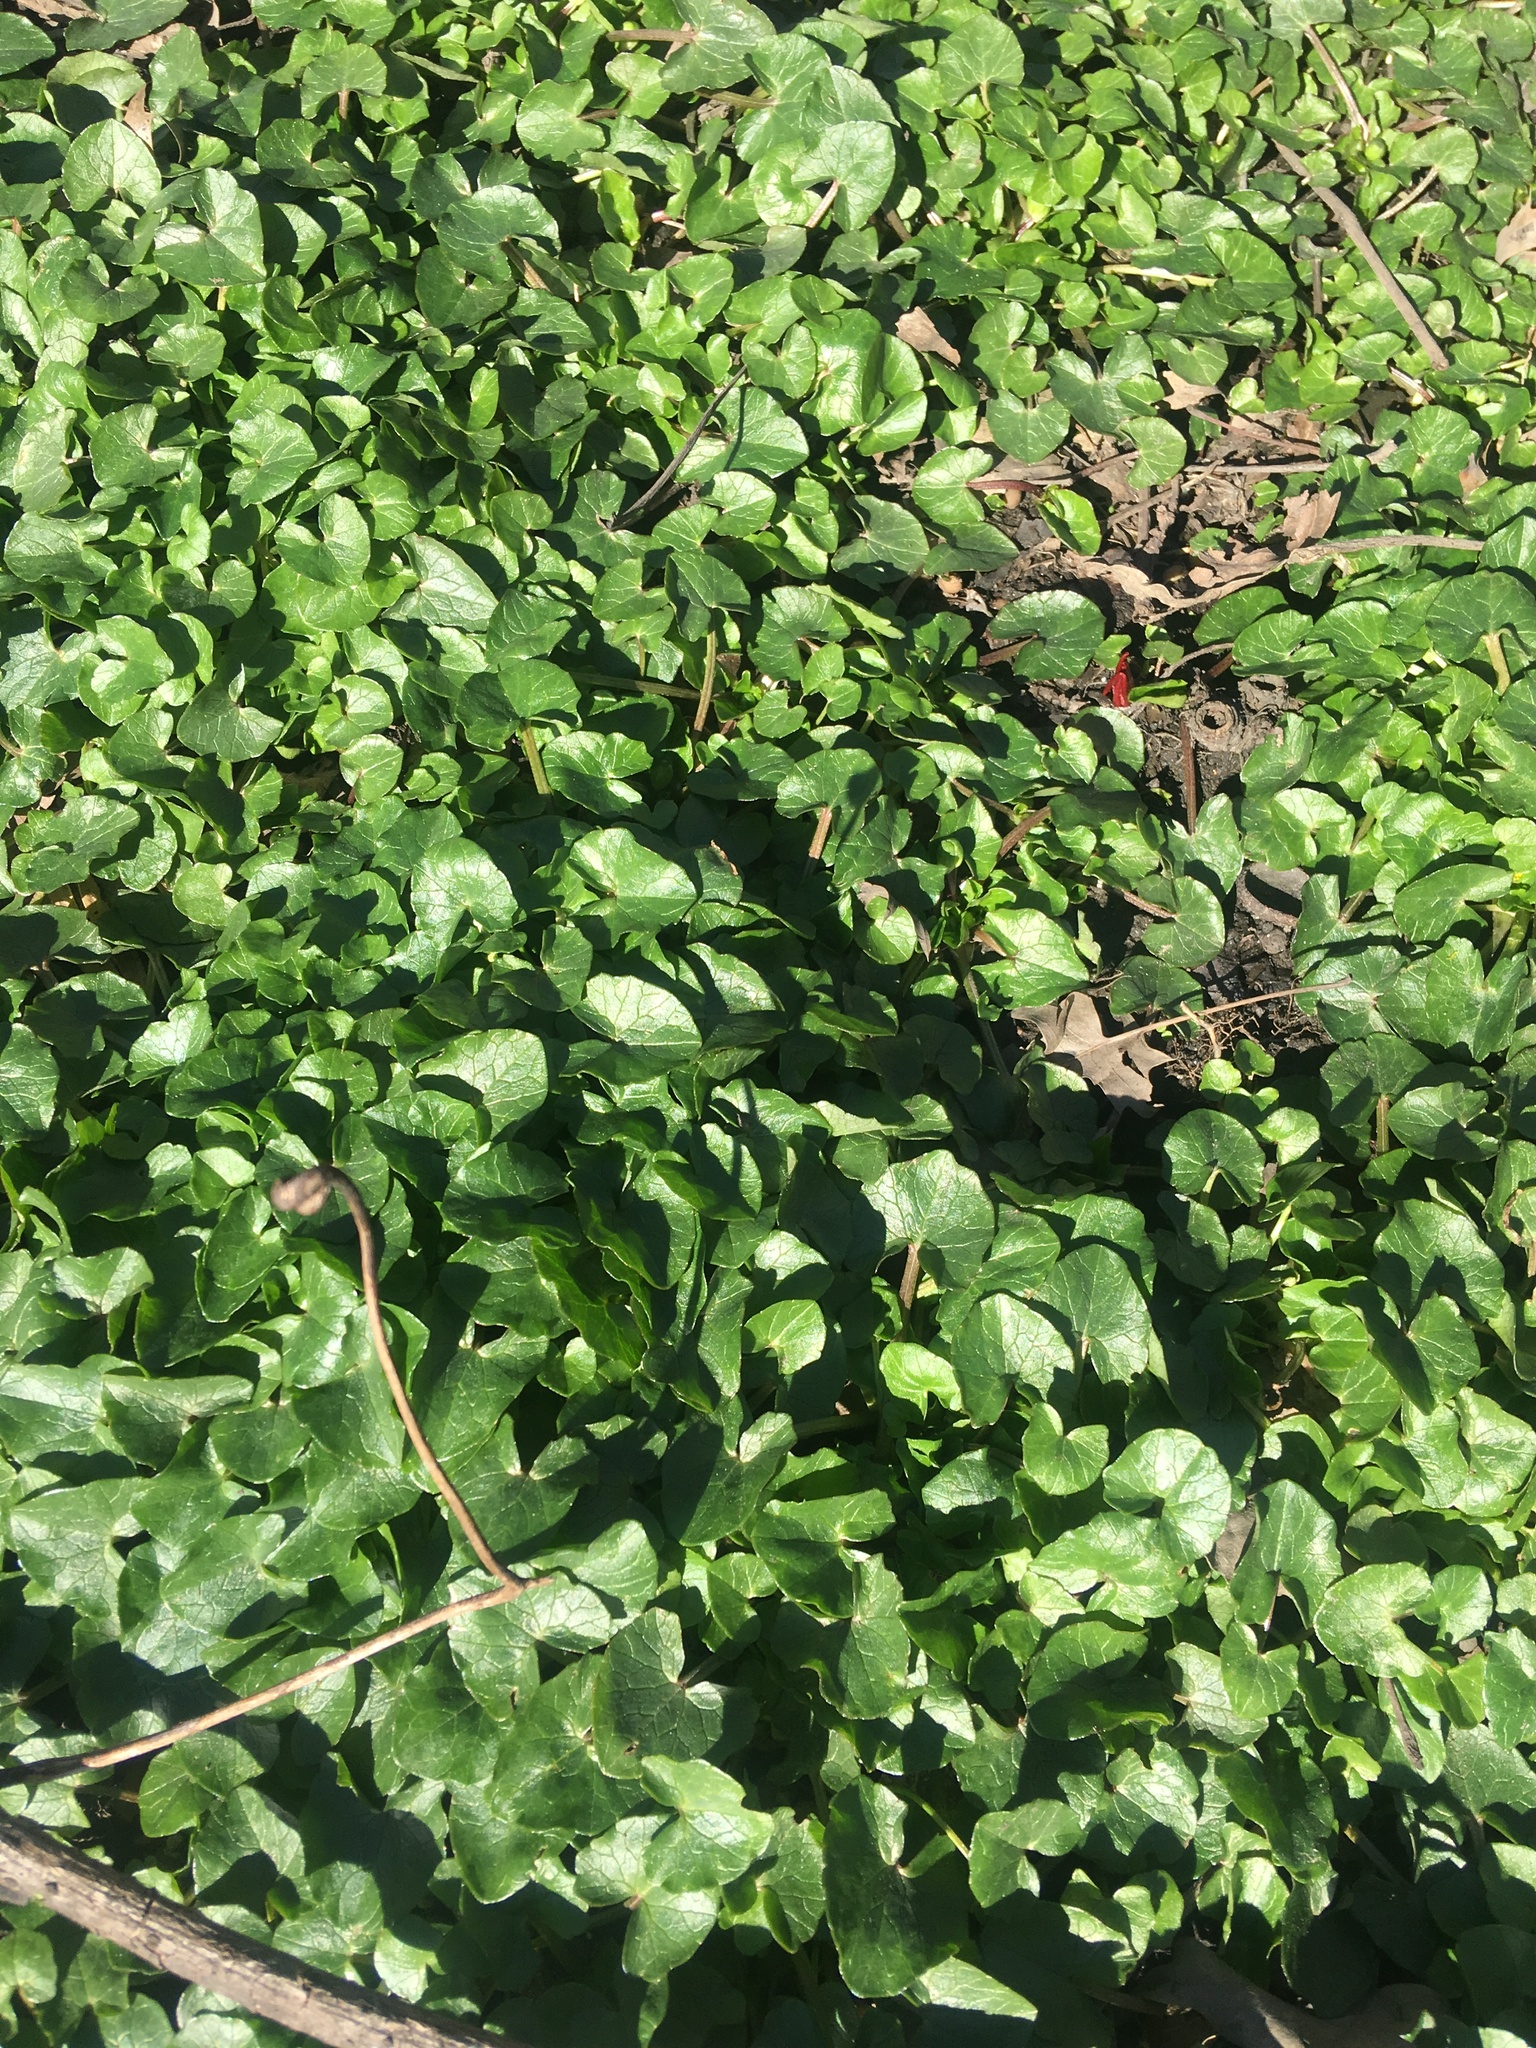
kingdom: Plantae
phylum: Tracheophyta
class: Magnoliopsida
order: Ranunculales
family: Ranunculaceae
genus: Ficaria
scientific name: Ficaria verna
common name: Lesser celandine
